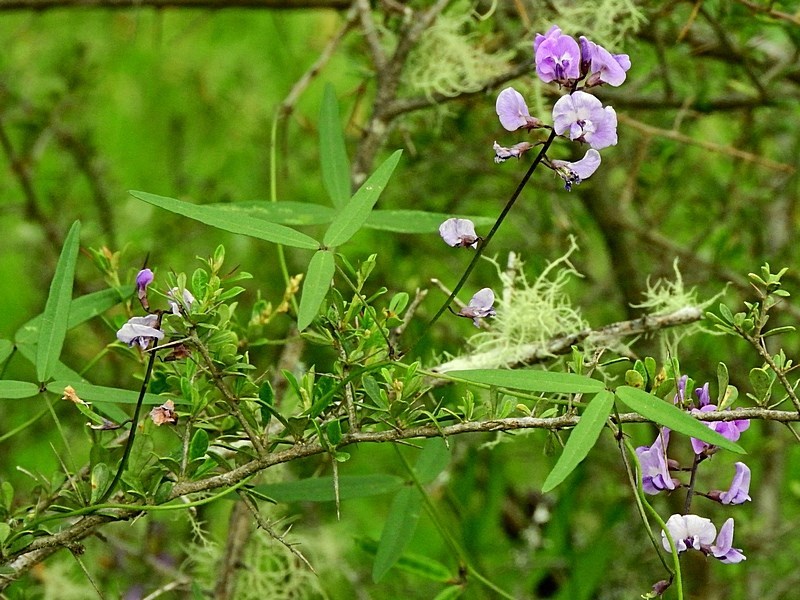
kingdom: Plantae
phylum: Tracheophyta
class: Magnoliopsida
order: Fabales
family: Fabaceae
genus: Glycine
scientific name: Glycine clandestina
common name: Twining glycine
